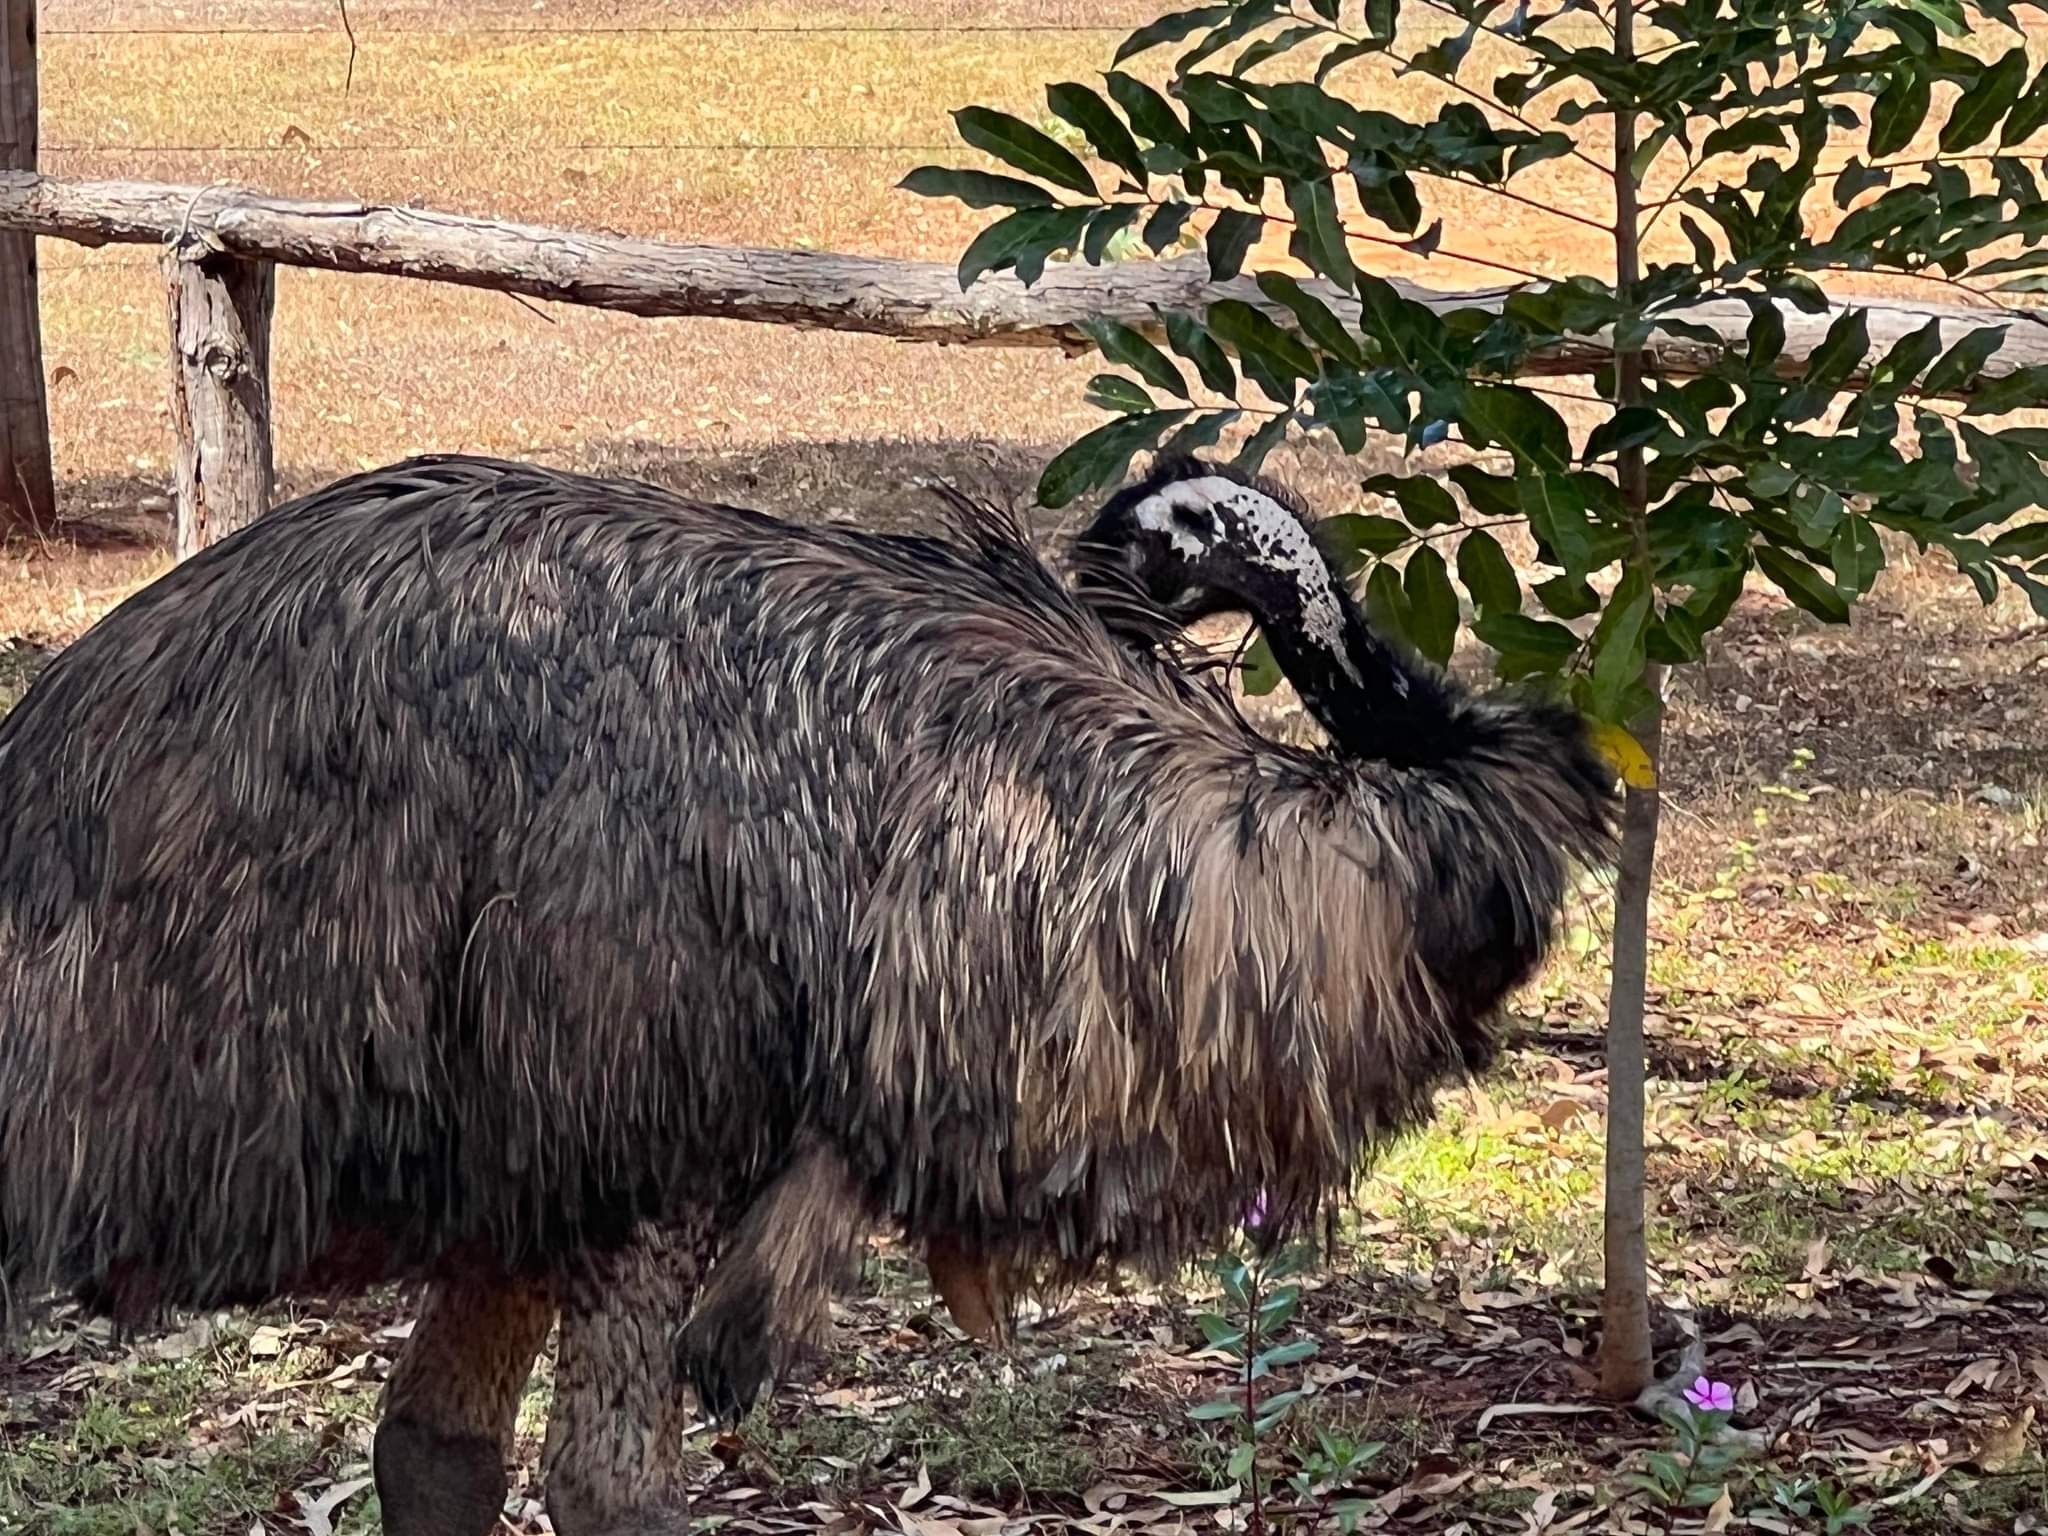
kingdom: Animalia
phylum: Chordata
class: Aves
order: Casuariiformes
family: Dromaiidae
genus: Dromaius
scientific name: Dromaius novaehollandiae
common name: Emu
